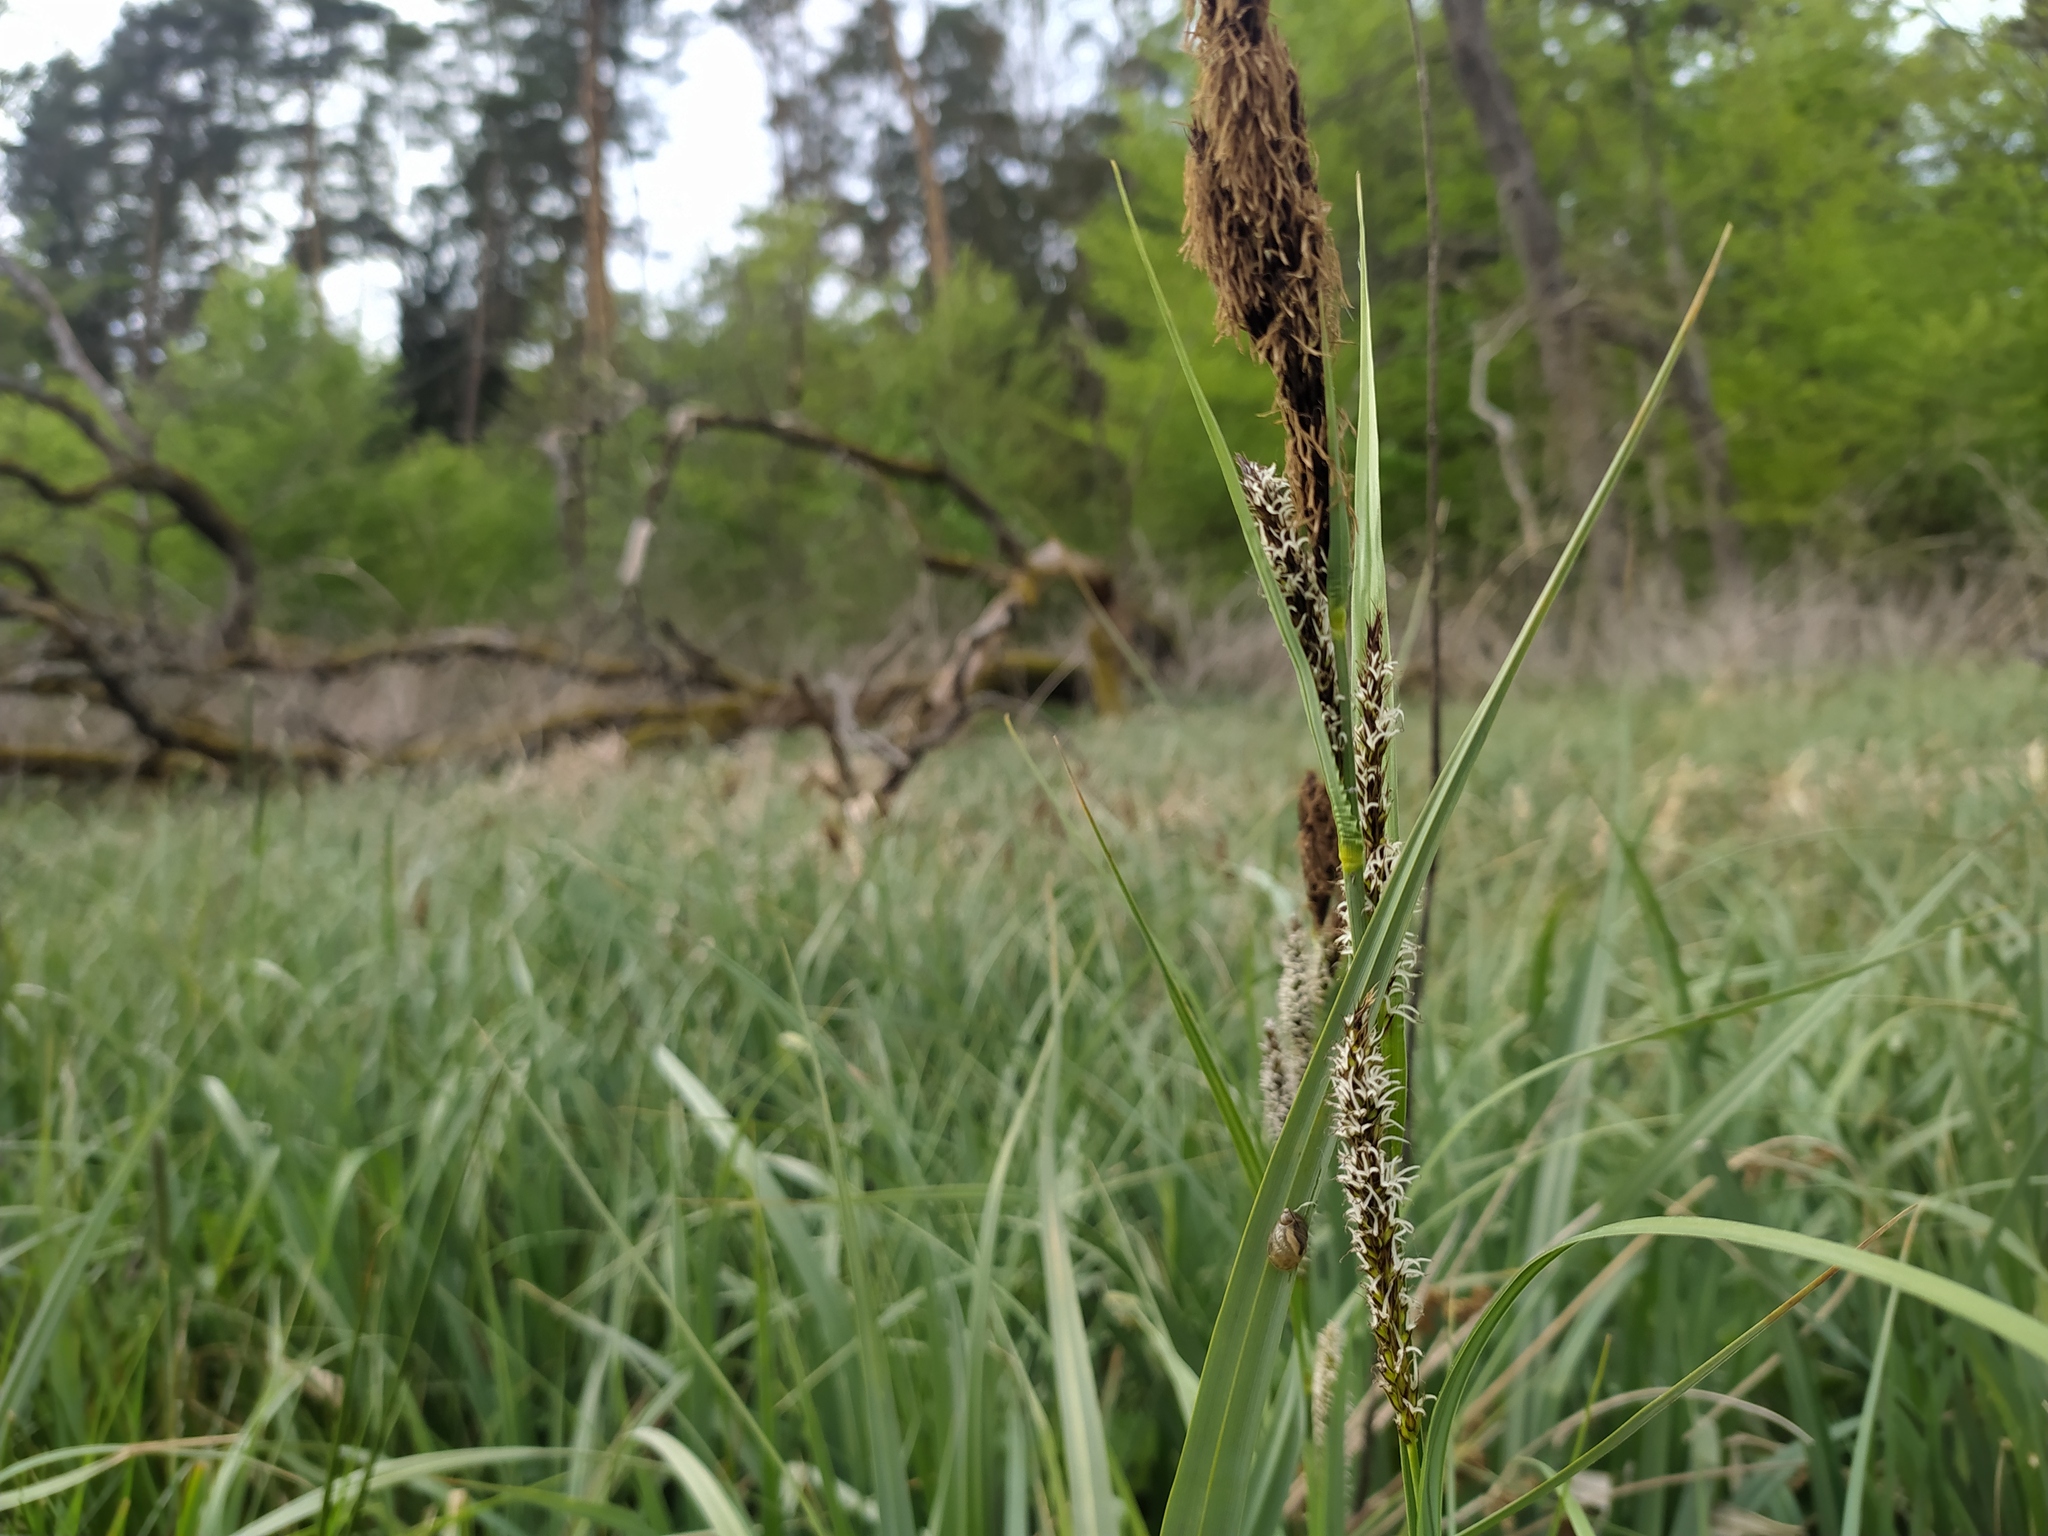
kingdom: Plantae
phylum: Tracheophyta
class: Liliopsida
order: Poales
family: Cyperaceae
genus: Carex
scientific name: Carex acutiformis
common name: Lesser pond-sedge
